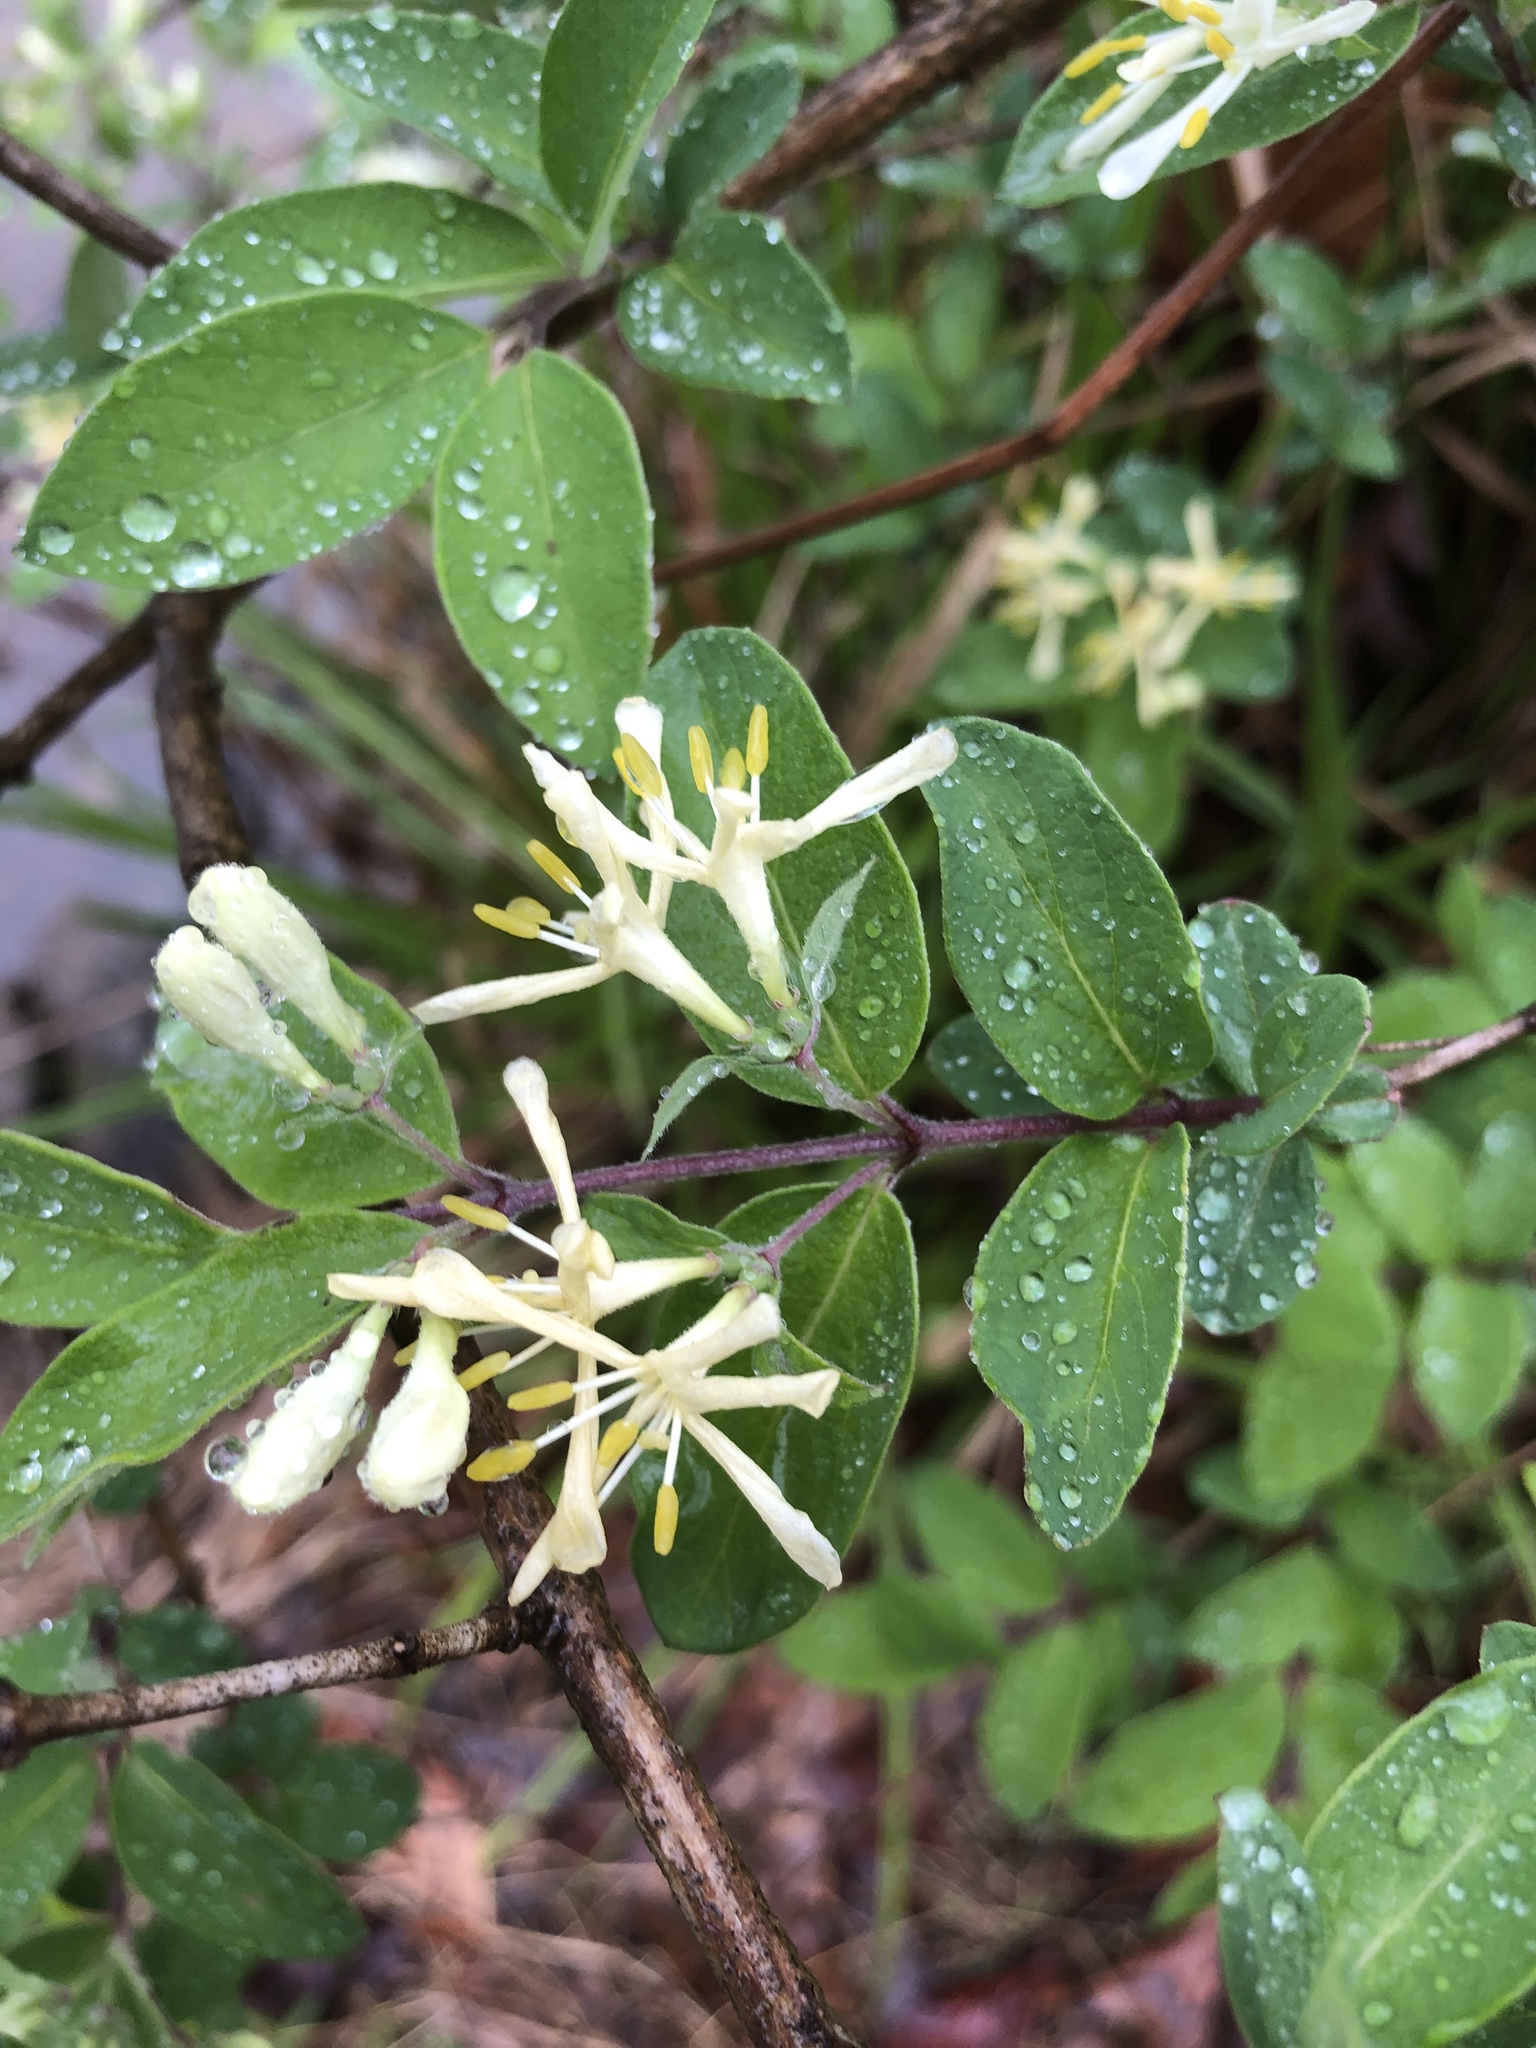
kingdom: Plantae
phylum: Tracheophyta
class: Magnoliopsida
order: Dipsacales
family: Caprifoliaceae
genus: Lonicera
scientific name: Lonicera morrowii
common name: Morrow's honeysuckle
